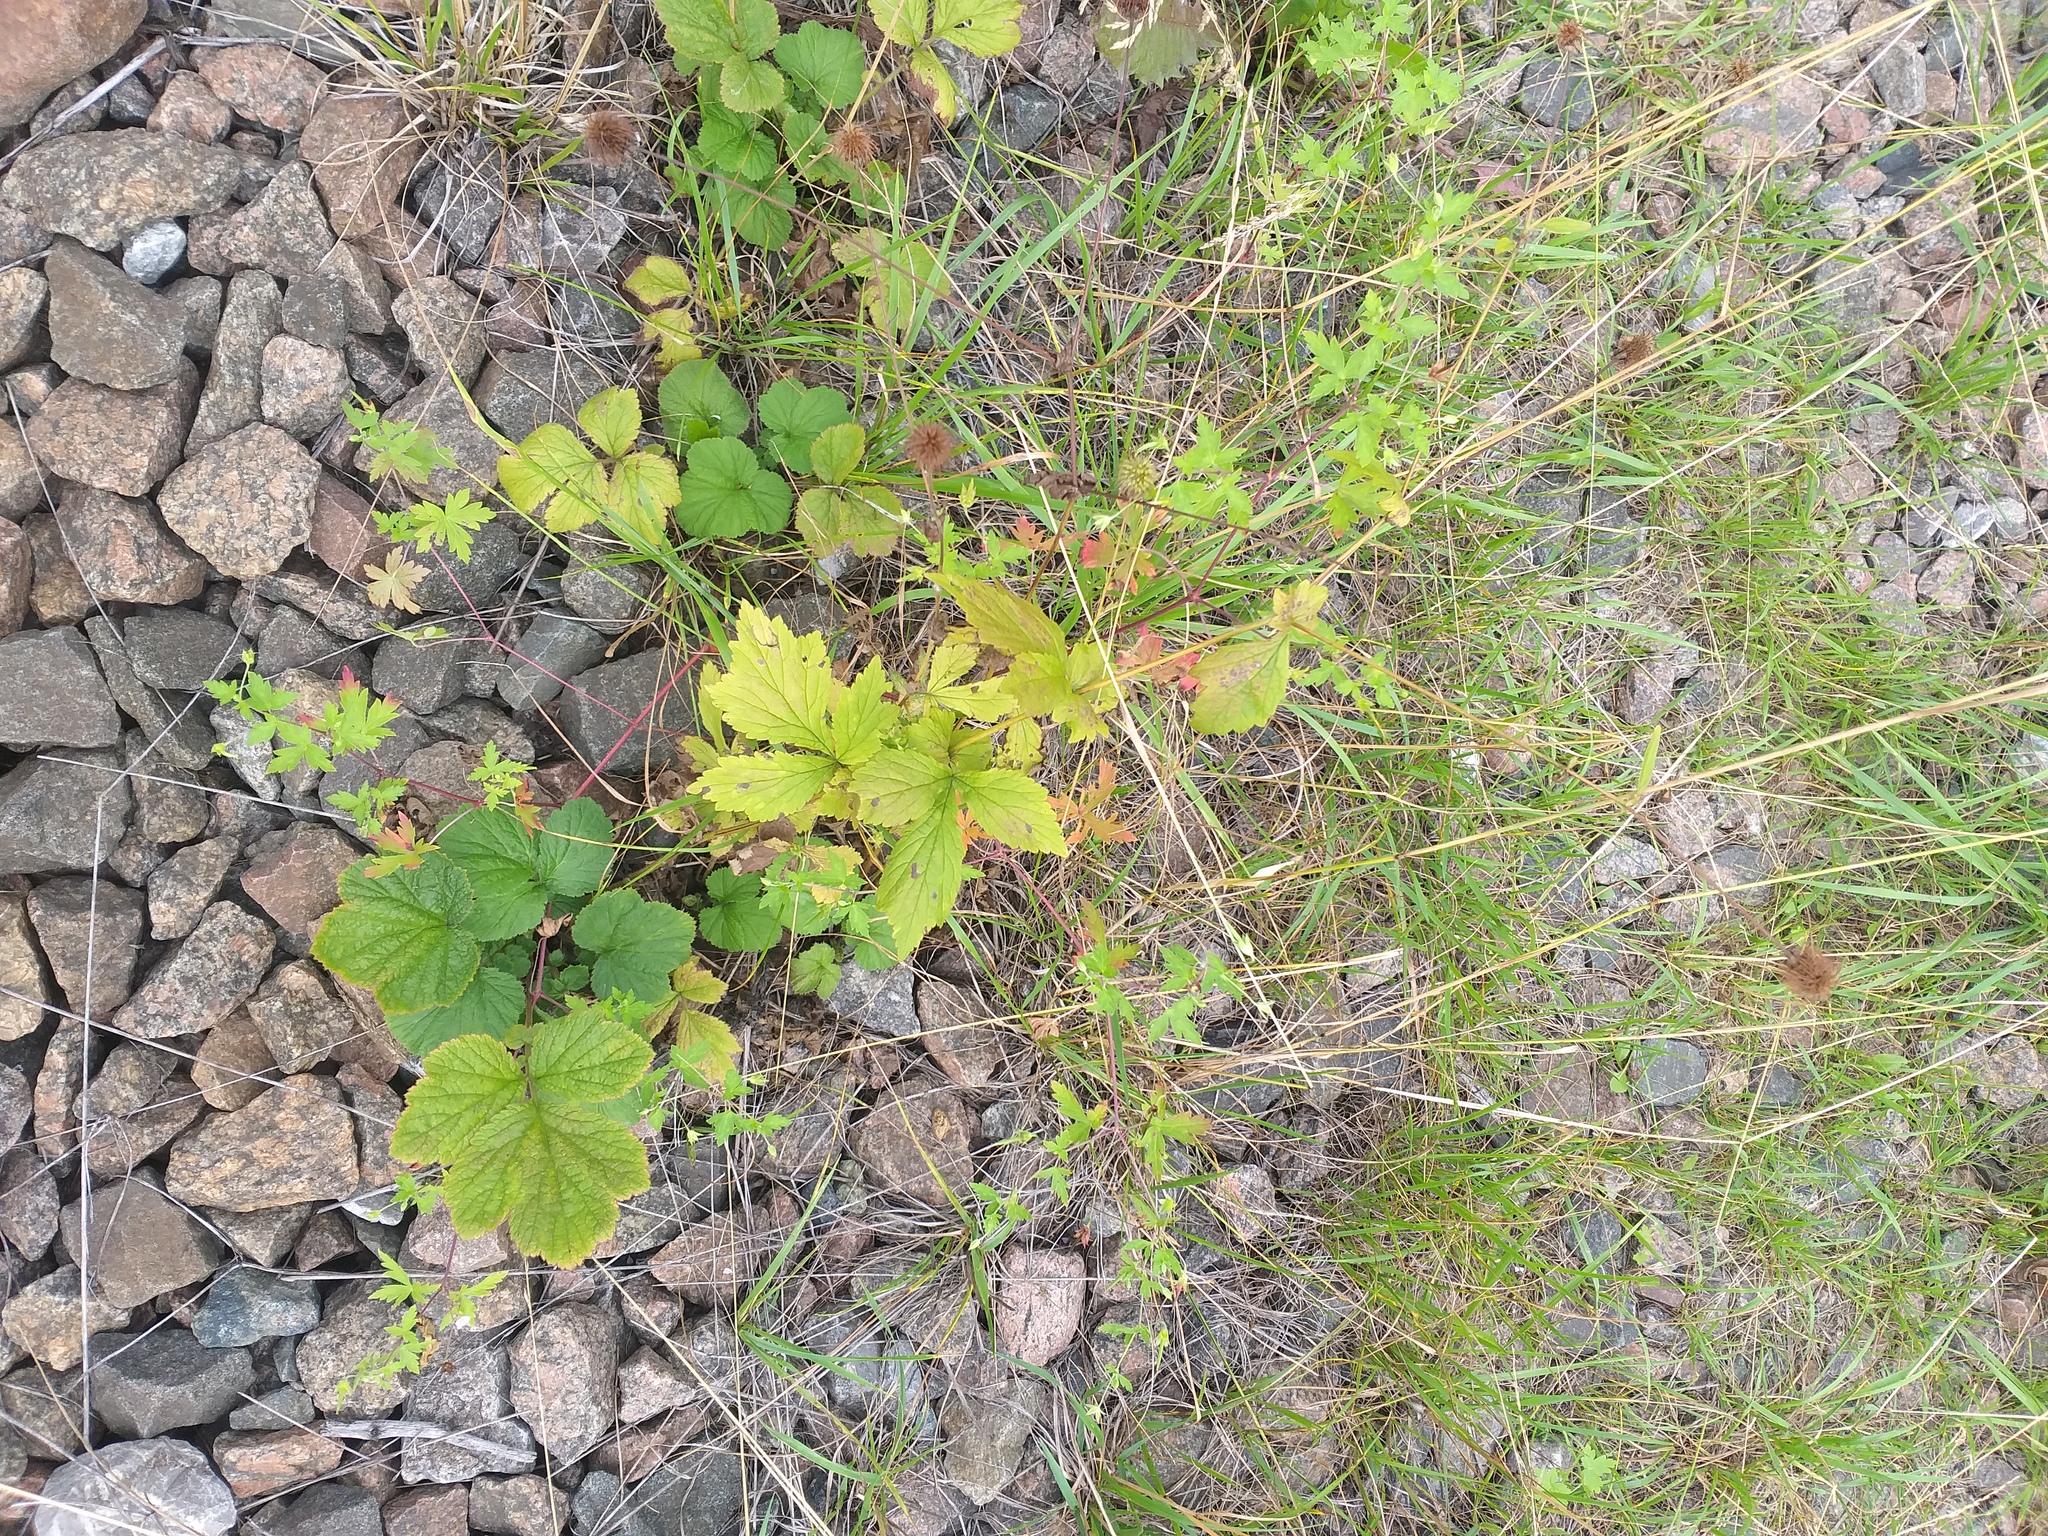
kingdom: Plantae
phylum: Tracheophyta
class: Magnoliopsida
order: Rosales
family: Rosaceae
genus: Geum
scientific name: Geum urbanum
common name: Wood avens
